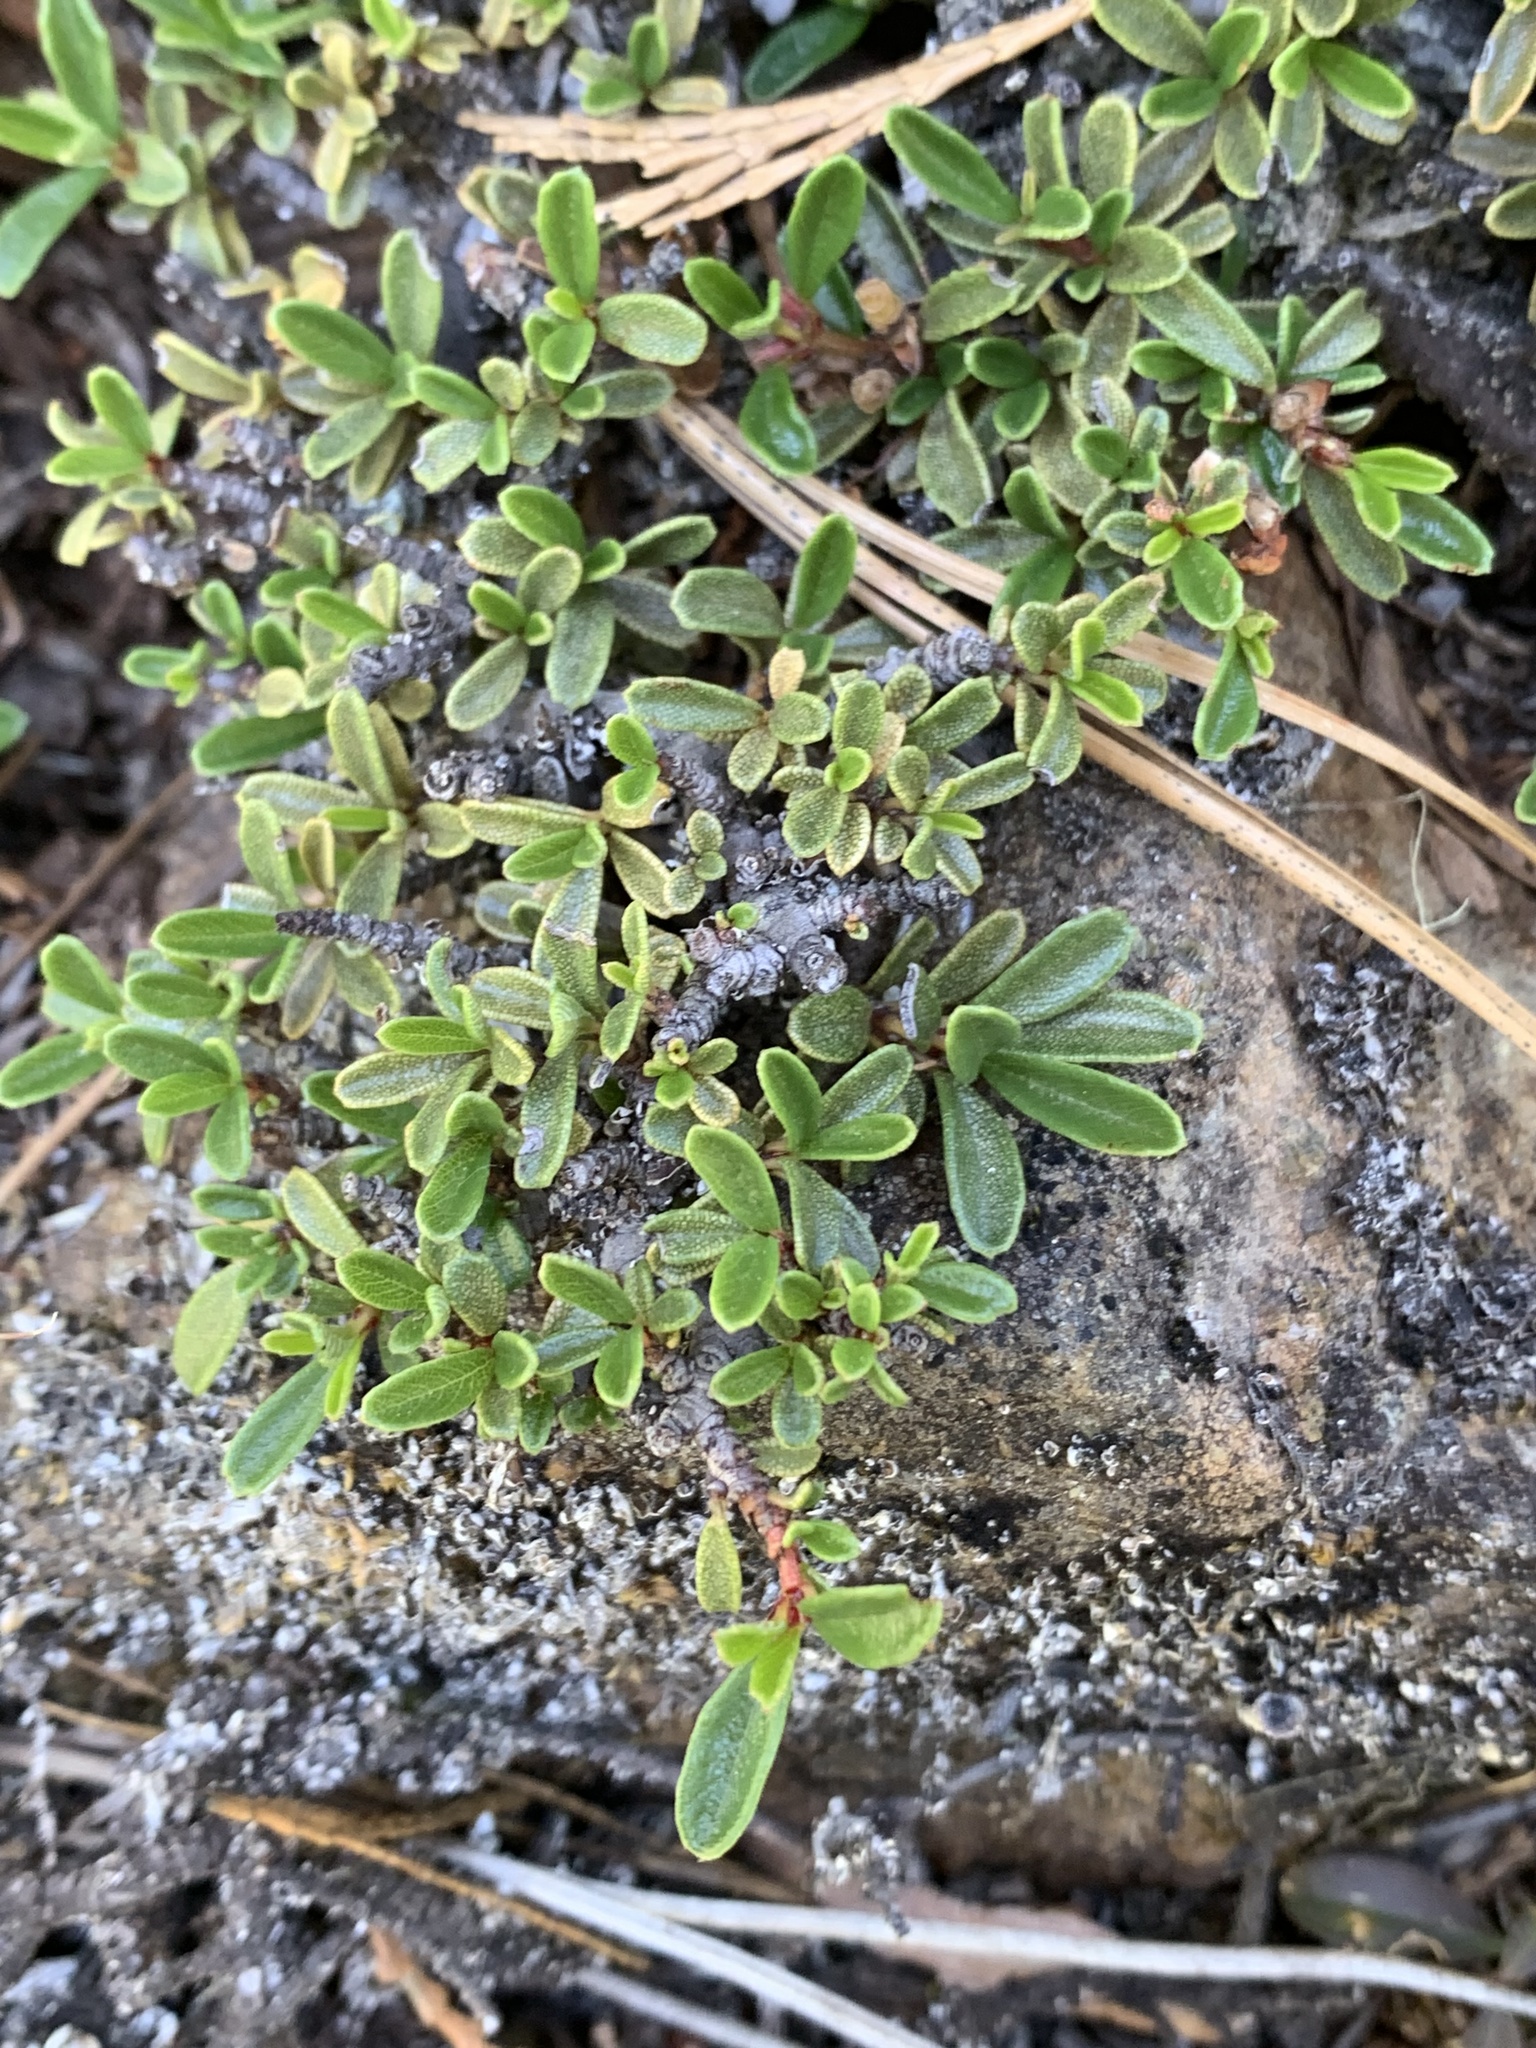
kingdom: Plantae
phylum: Tracheophyta
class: Magnoliopsida
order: Rosales
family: Rhamnaceae
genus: Ceanothus
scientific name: Ceanothus pumilus
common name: Siskiyou-mat
